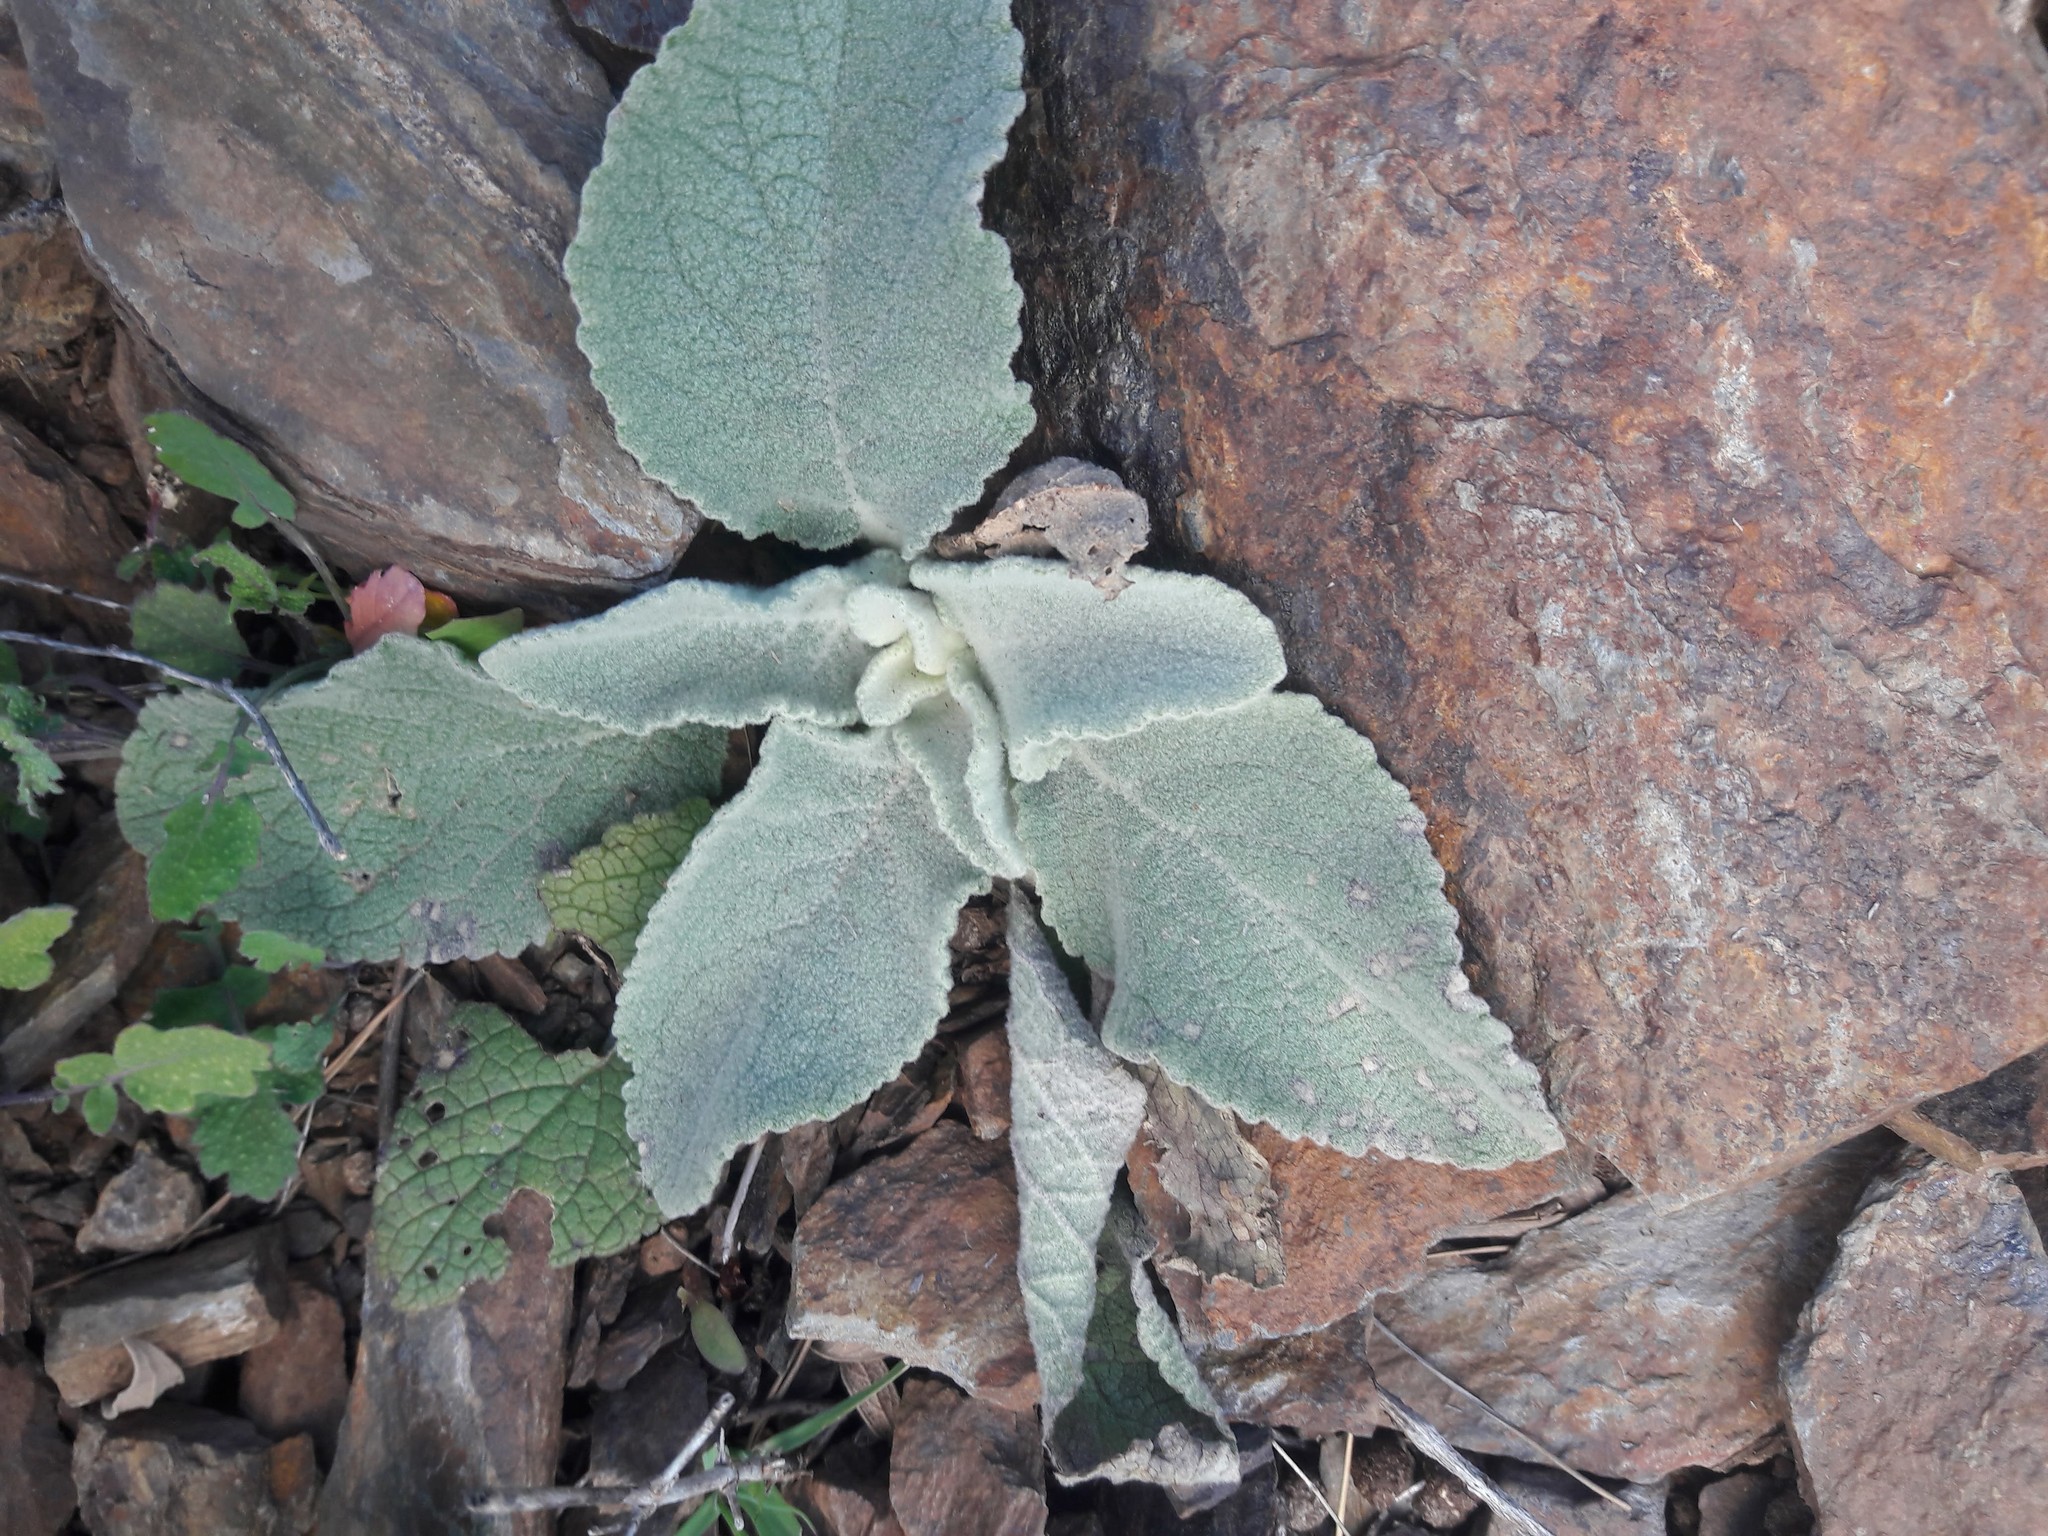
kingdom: Plantae
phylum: Tracheophyta
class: Magnoliopsida
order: Lamiales
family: Scrophulariaceae
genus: Verbascum
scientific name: Verbascum thapsus
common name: Common mullein
